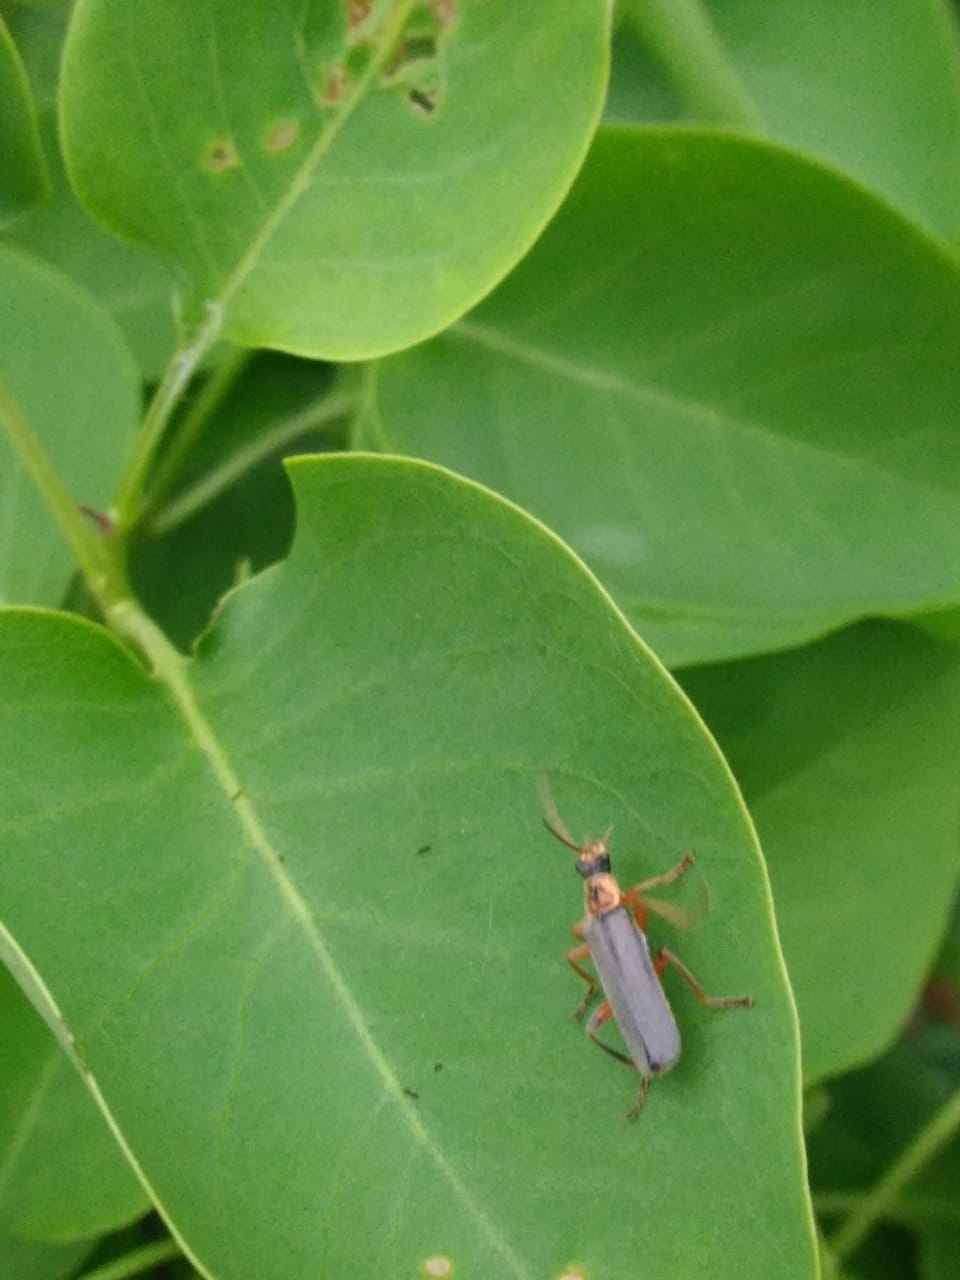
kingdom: Animalia
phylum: Arthropoda
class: Insecta
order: Coleoptera
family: Cantharidae
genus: Cantharis
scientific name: Cantharis nigricans
